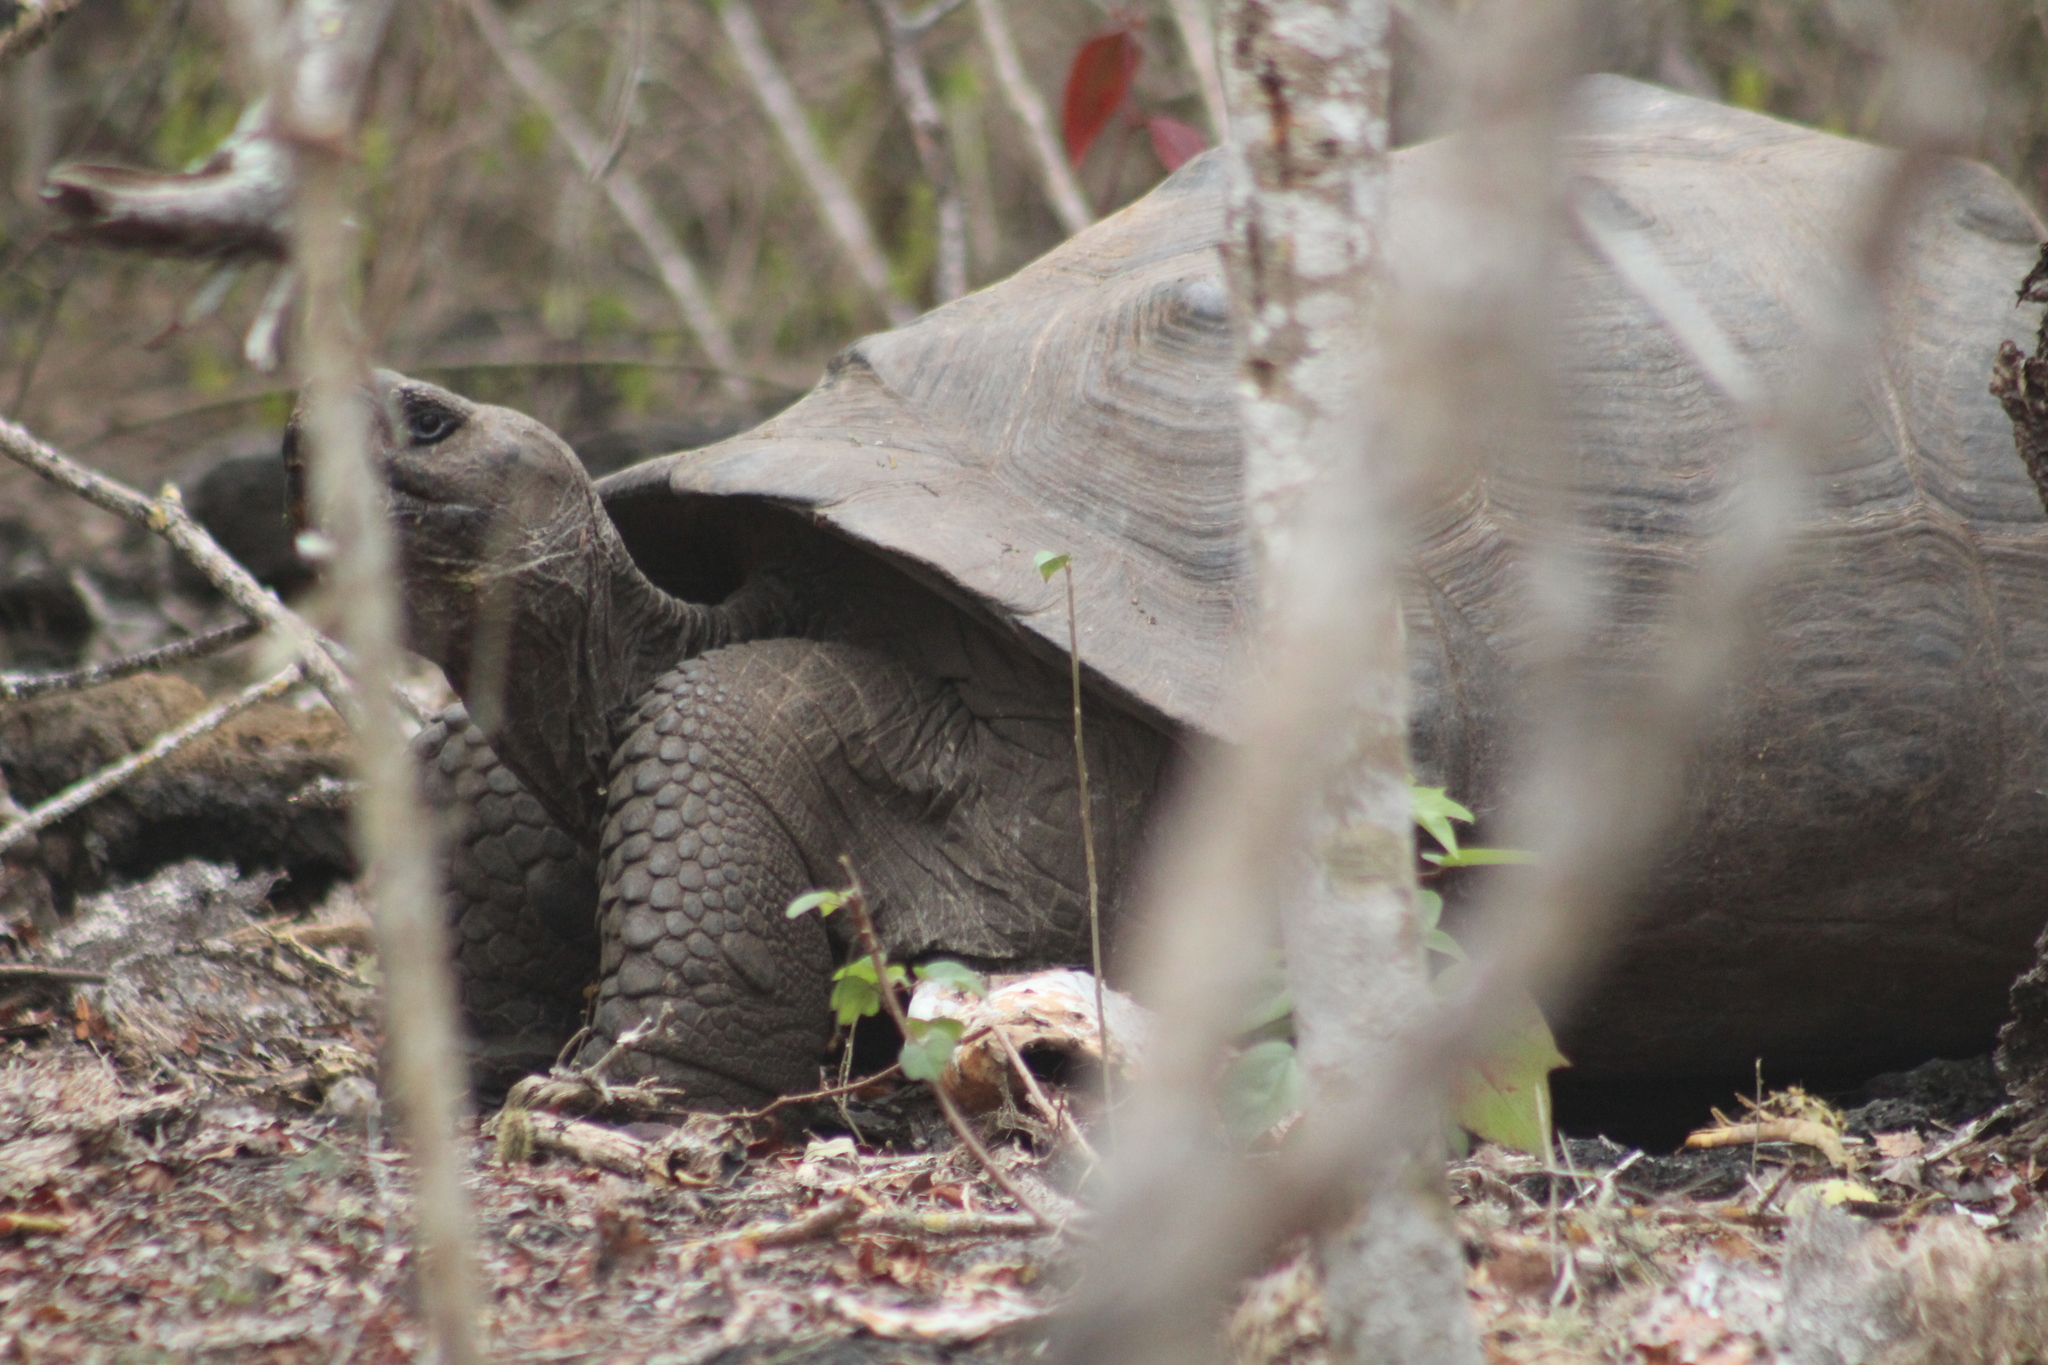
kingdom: Animalia
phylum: Chordata
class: Testudines
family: Testudinidae
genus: Chelonoidis
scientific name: Chelonoidis guntheri
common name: Sierra negra giant tortoise
